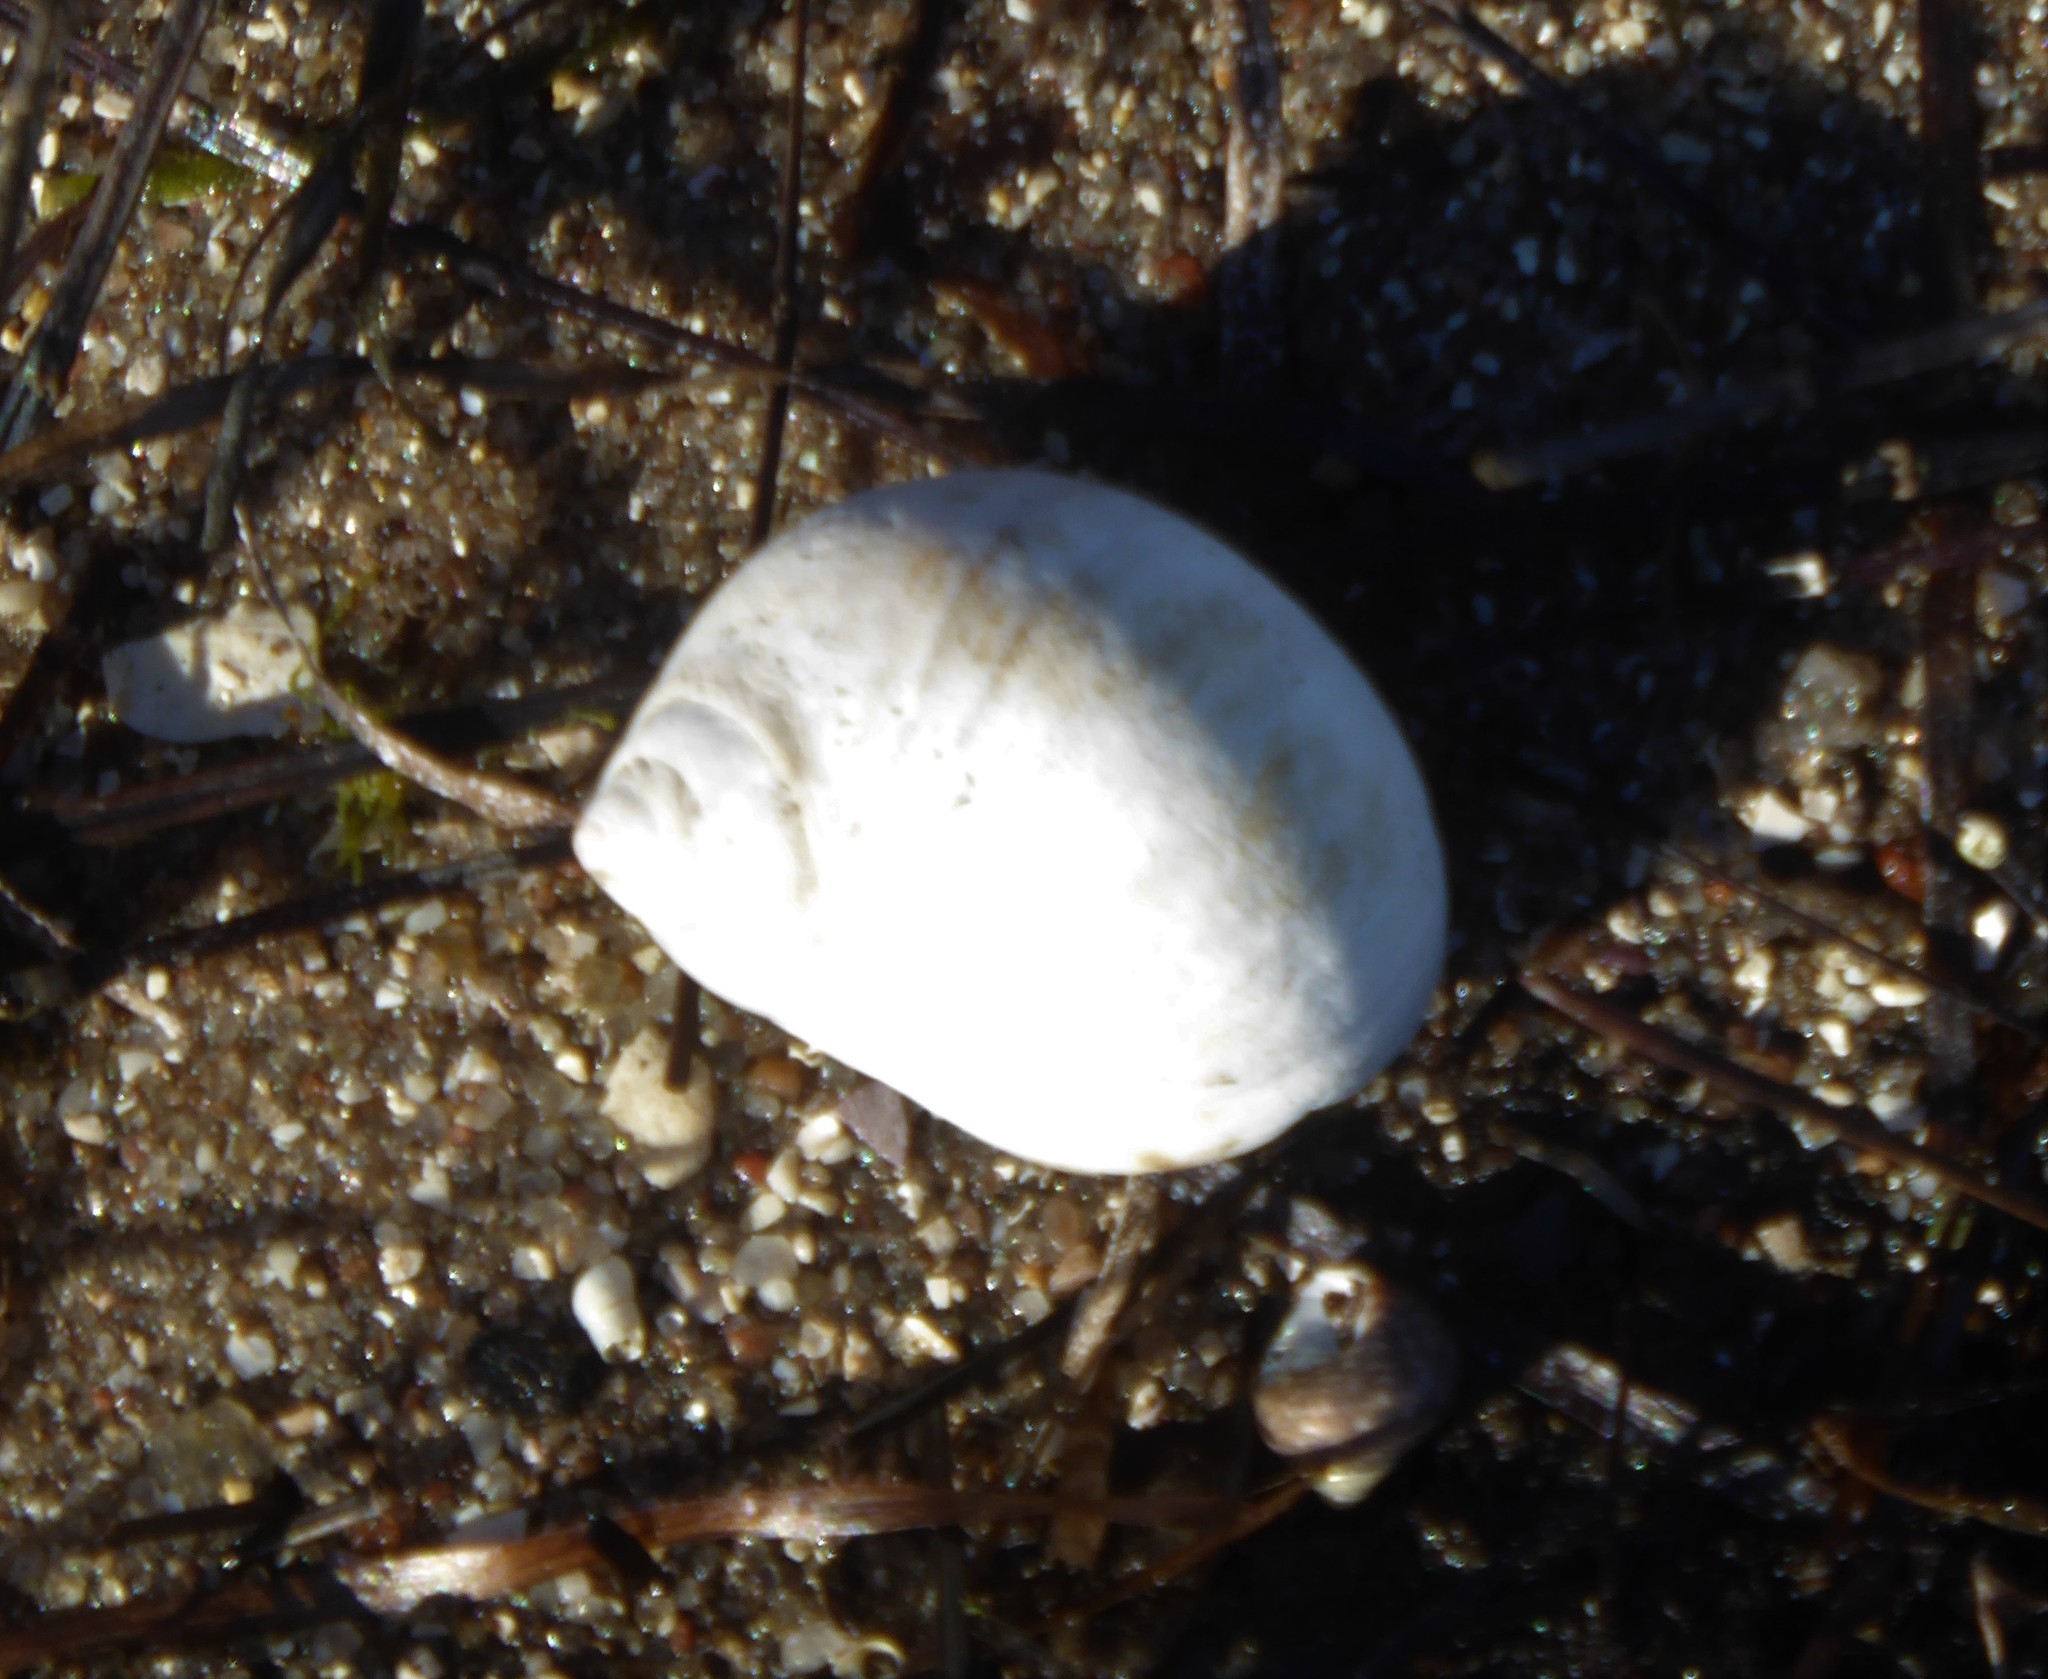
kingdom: Animalia
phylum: Mollusca
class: Gastropoda
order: Littorinimorpha
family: Naticidae
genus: Conuber
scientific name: Conuber conicum
